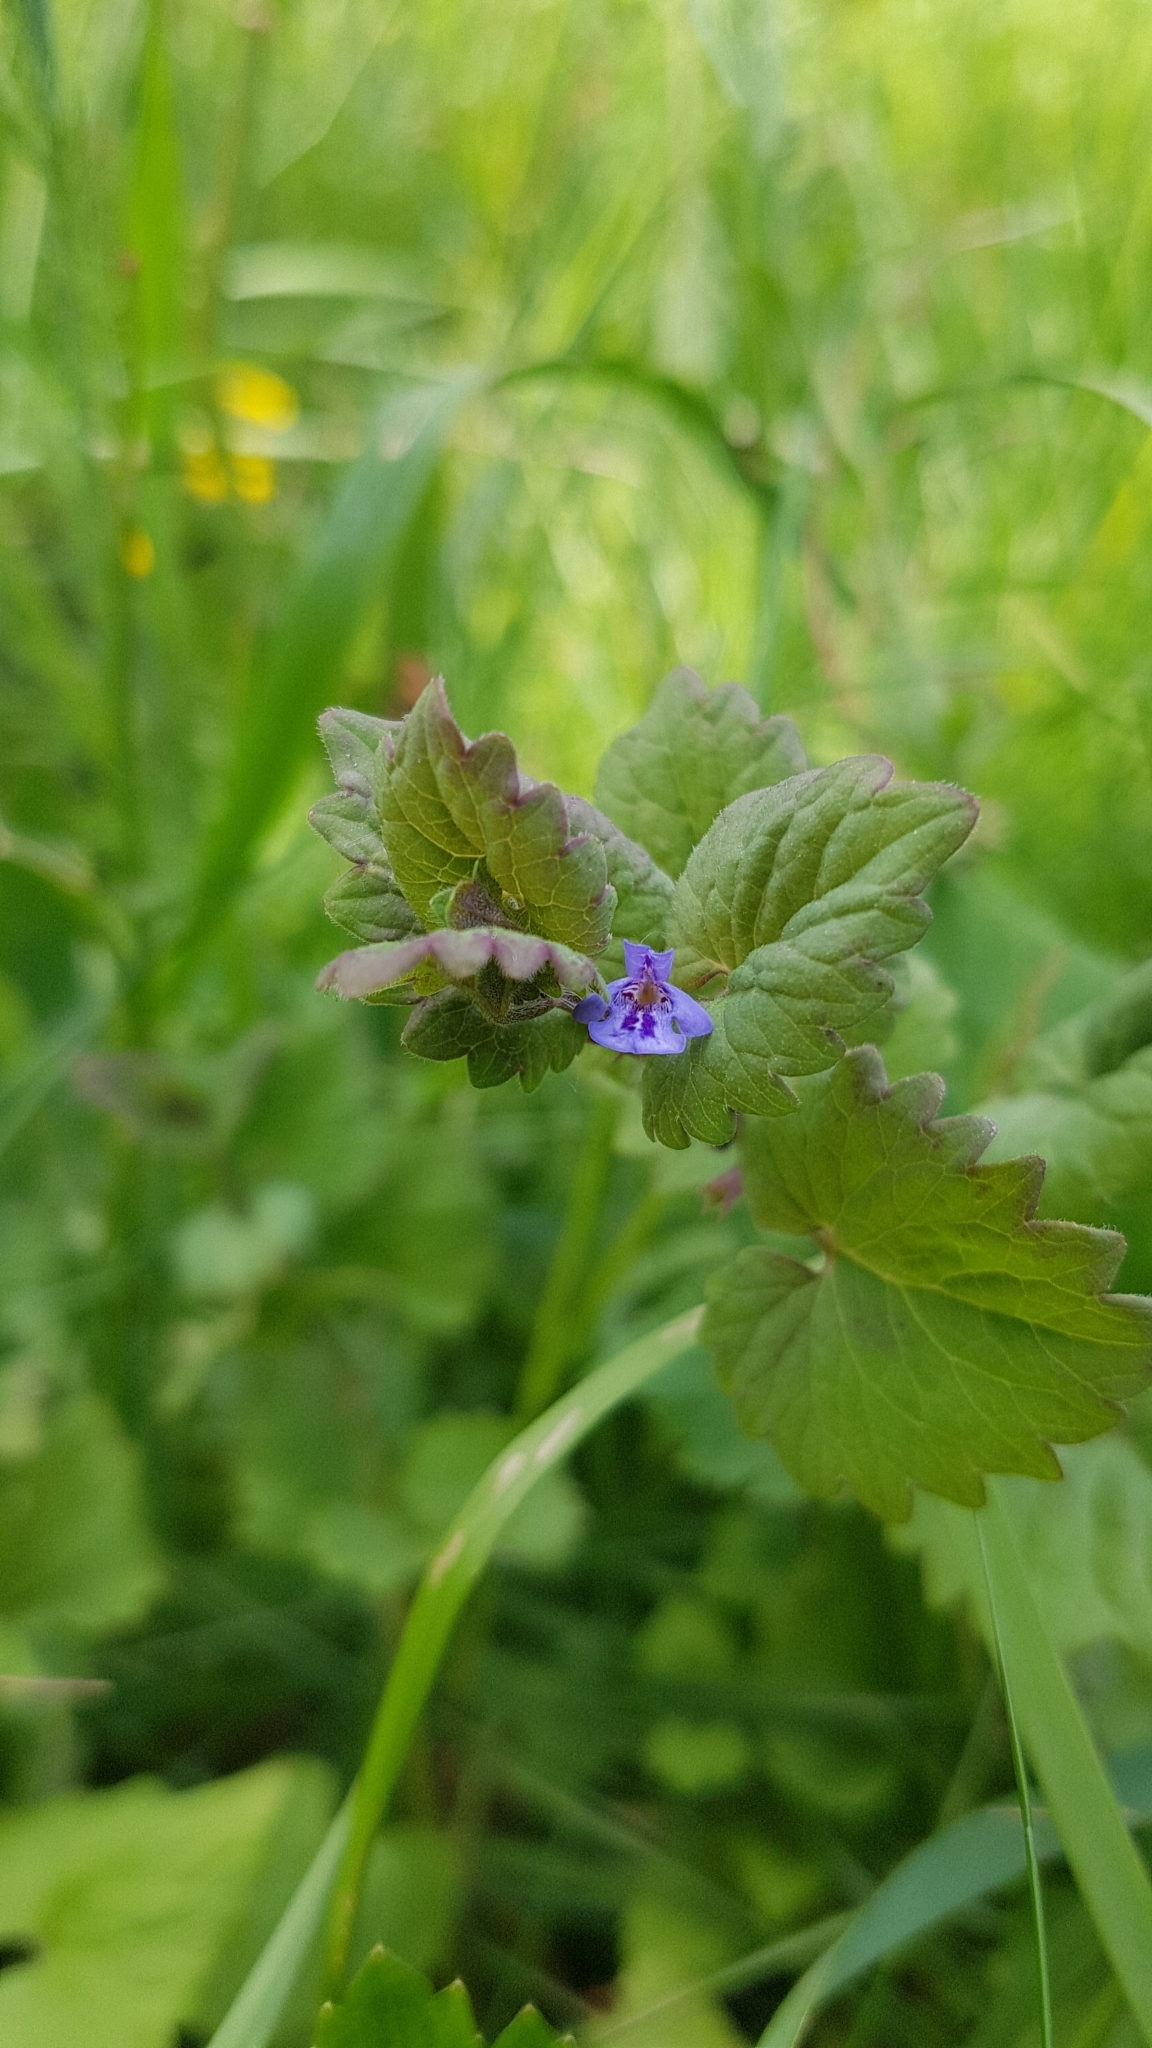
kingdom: Plantae
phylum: Tracheophyta
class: Magnoliopsida
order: Lamiales
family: Lamiaceae
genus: Glechoma
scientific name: Glechoma hederacea
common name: Ground ivy
